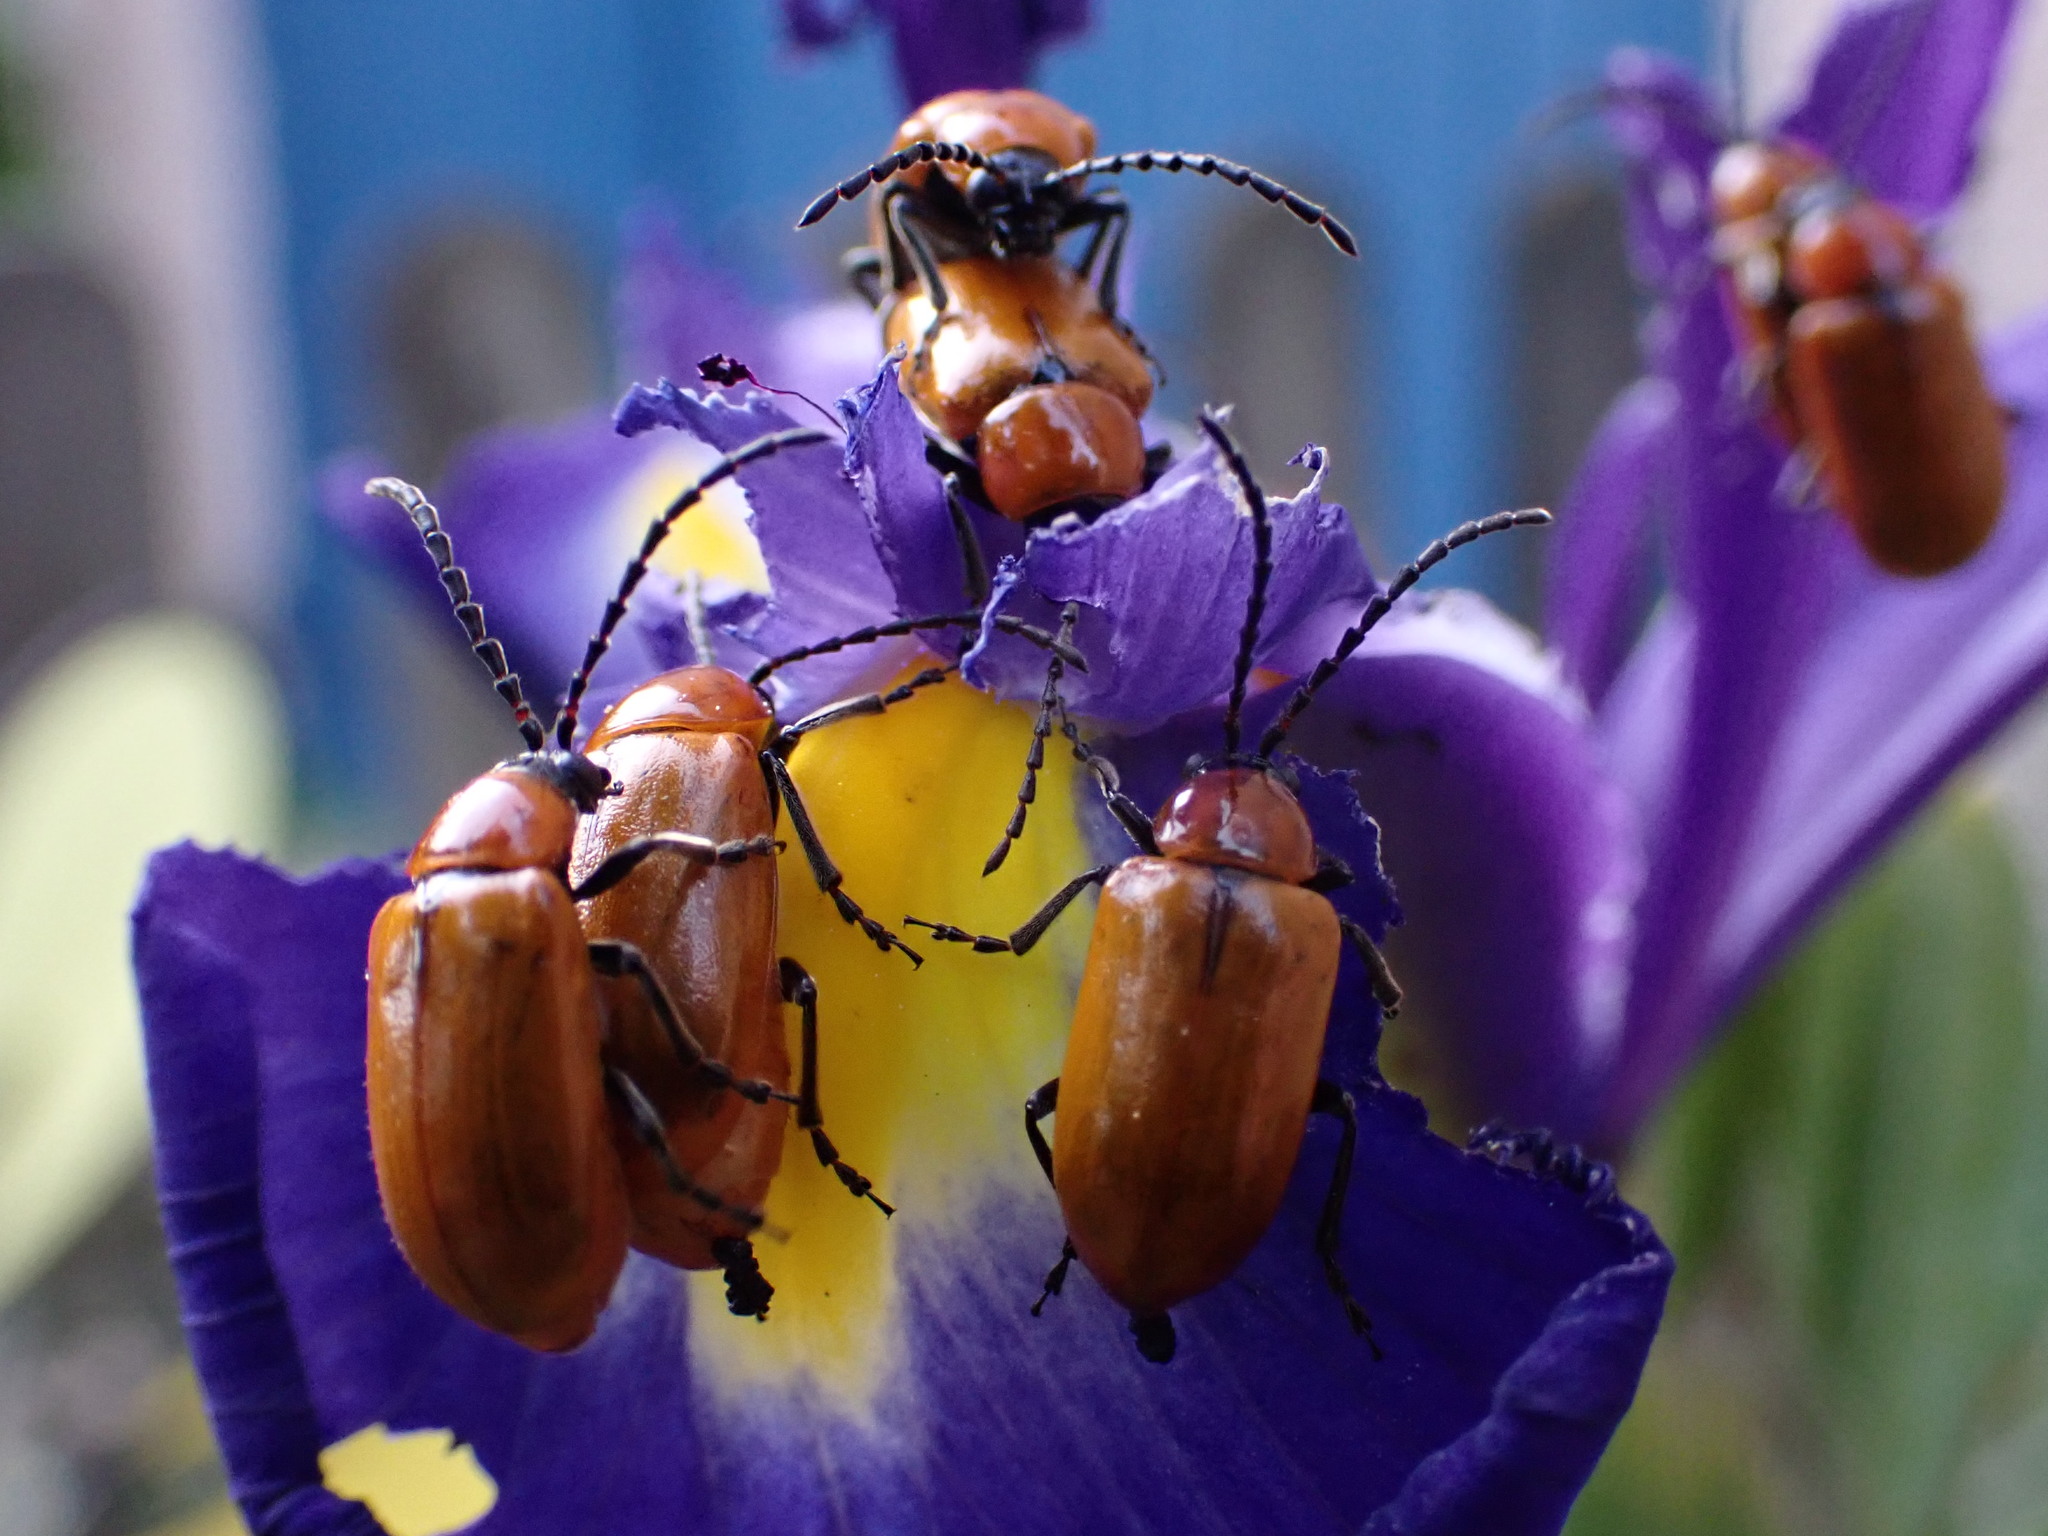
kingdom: Animalia
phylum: Arthropoda
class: Insecta
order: Coleoptera
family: Chrysomelidae
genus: Exosoma
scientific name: Exosoma lusitanicum
